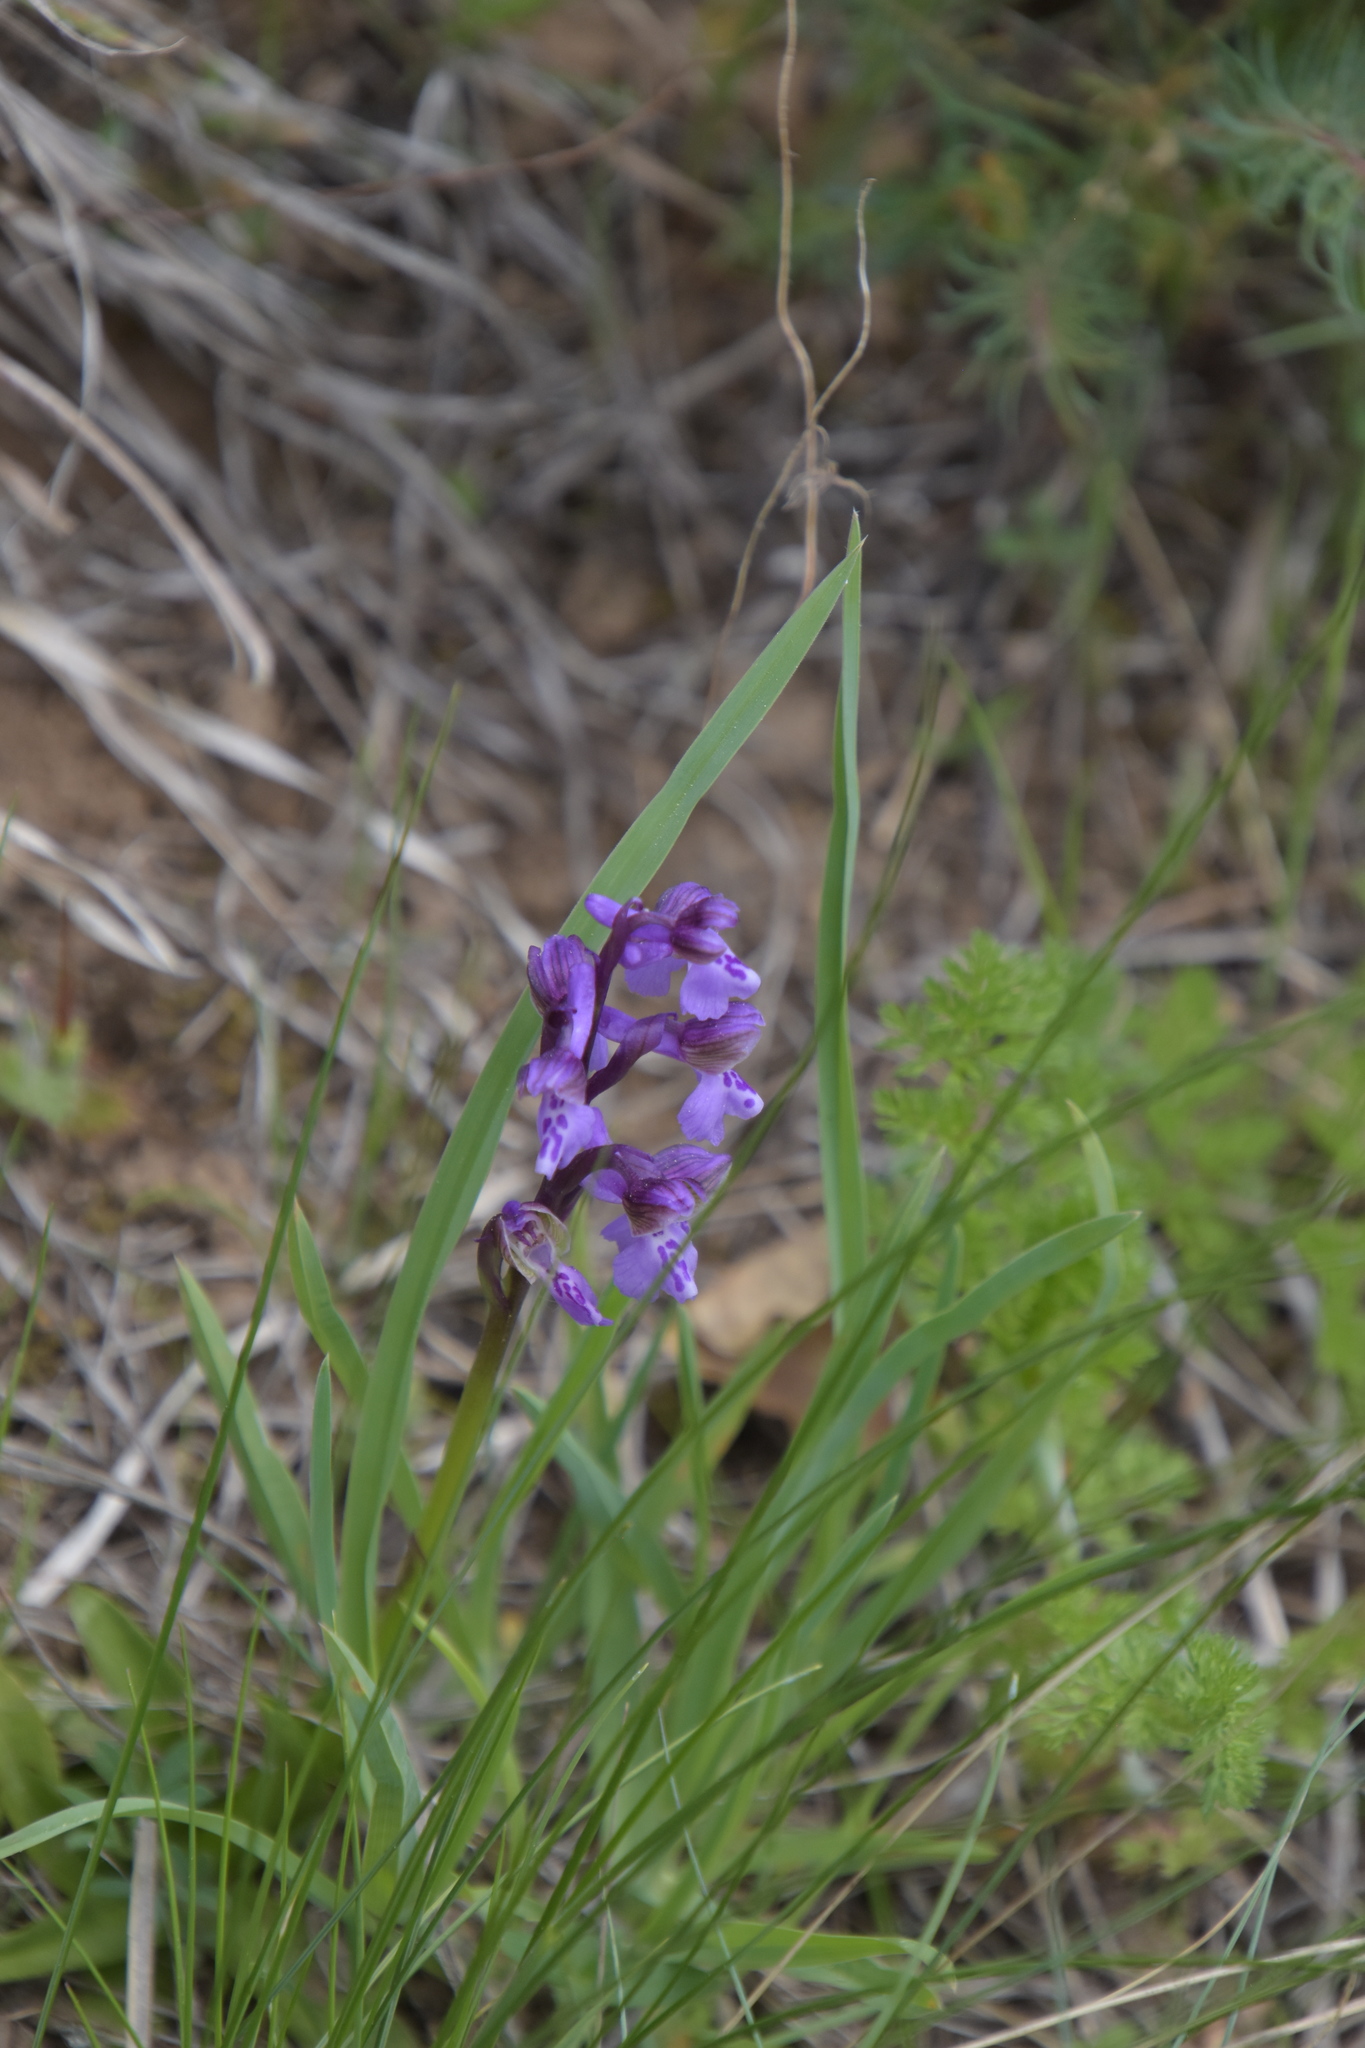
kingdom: Plantae
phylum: Tracheophyta
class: Liliopsida
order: Asparagales
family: Orchidaceae
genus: Anacamptis
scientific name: Anacamptis morio
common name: Green-winged orchid
